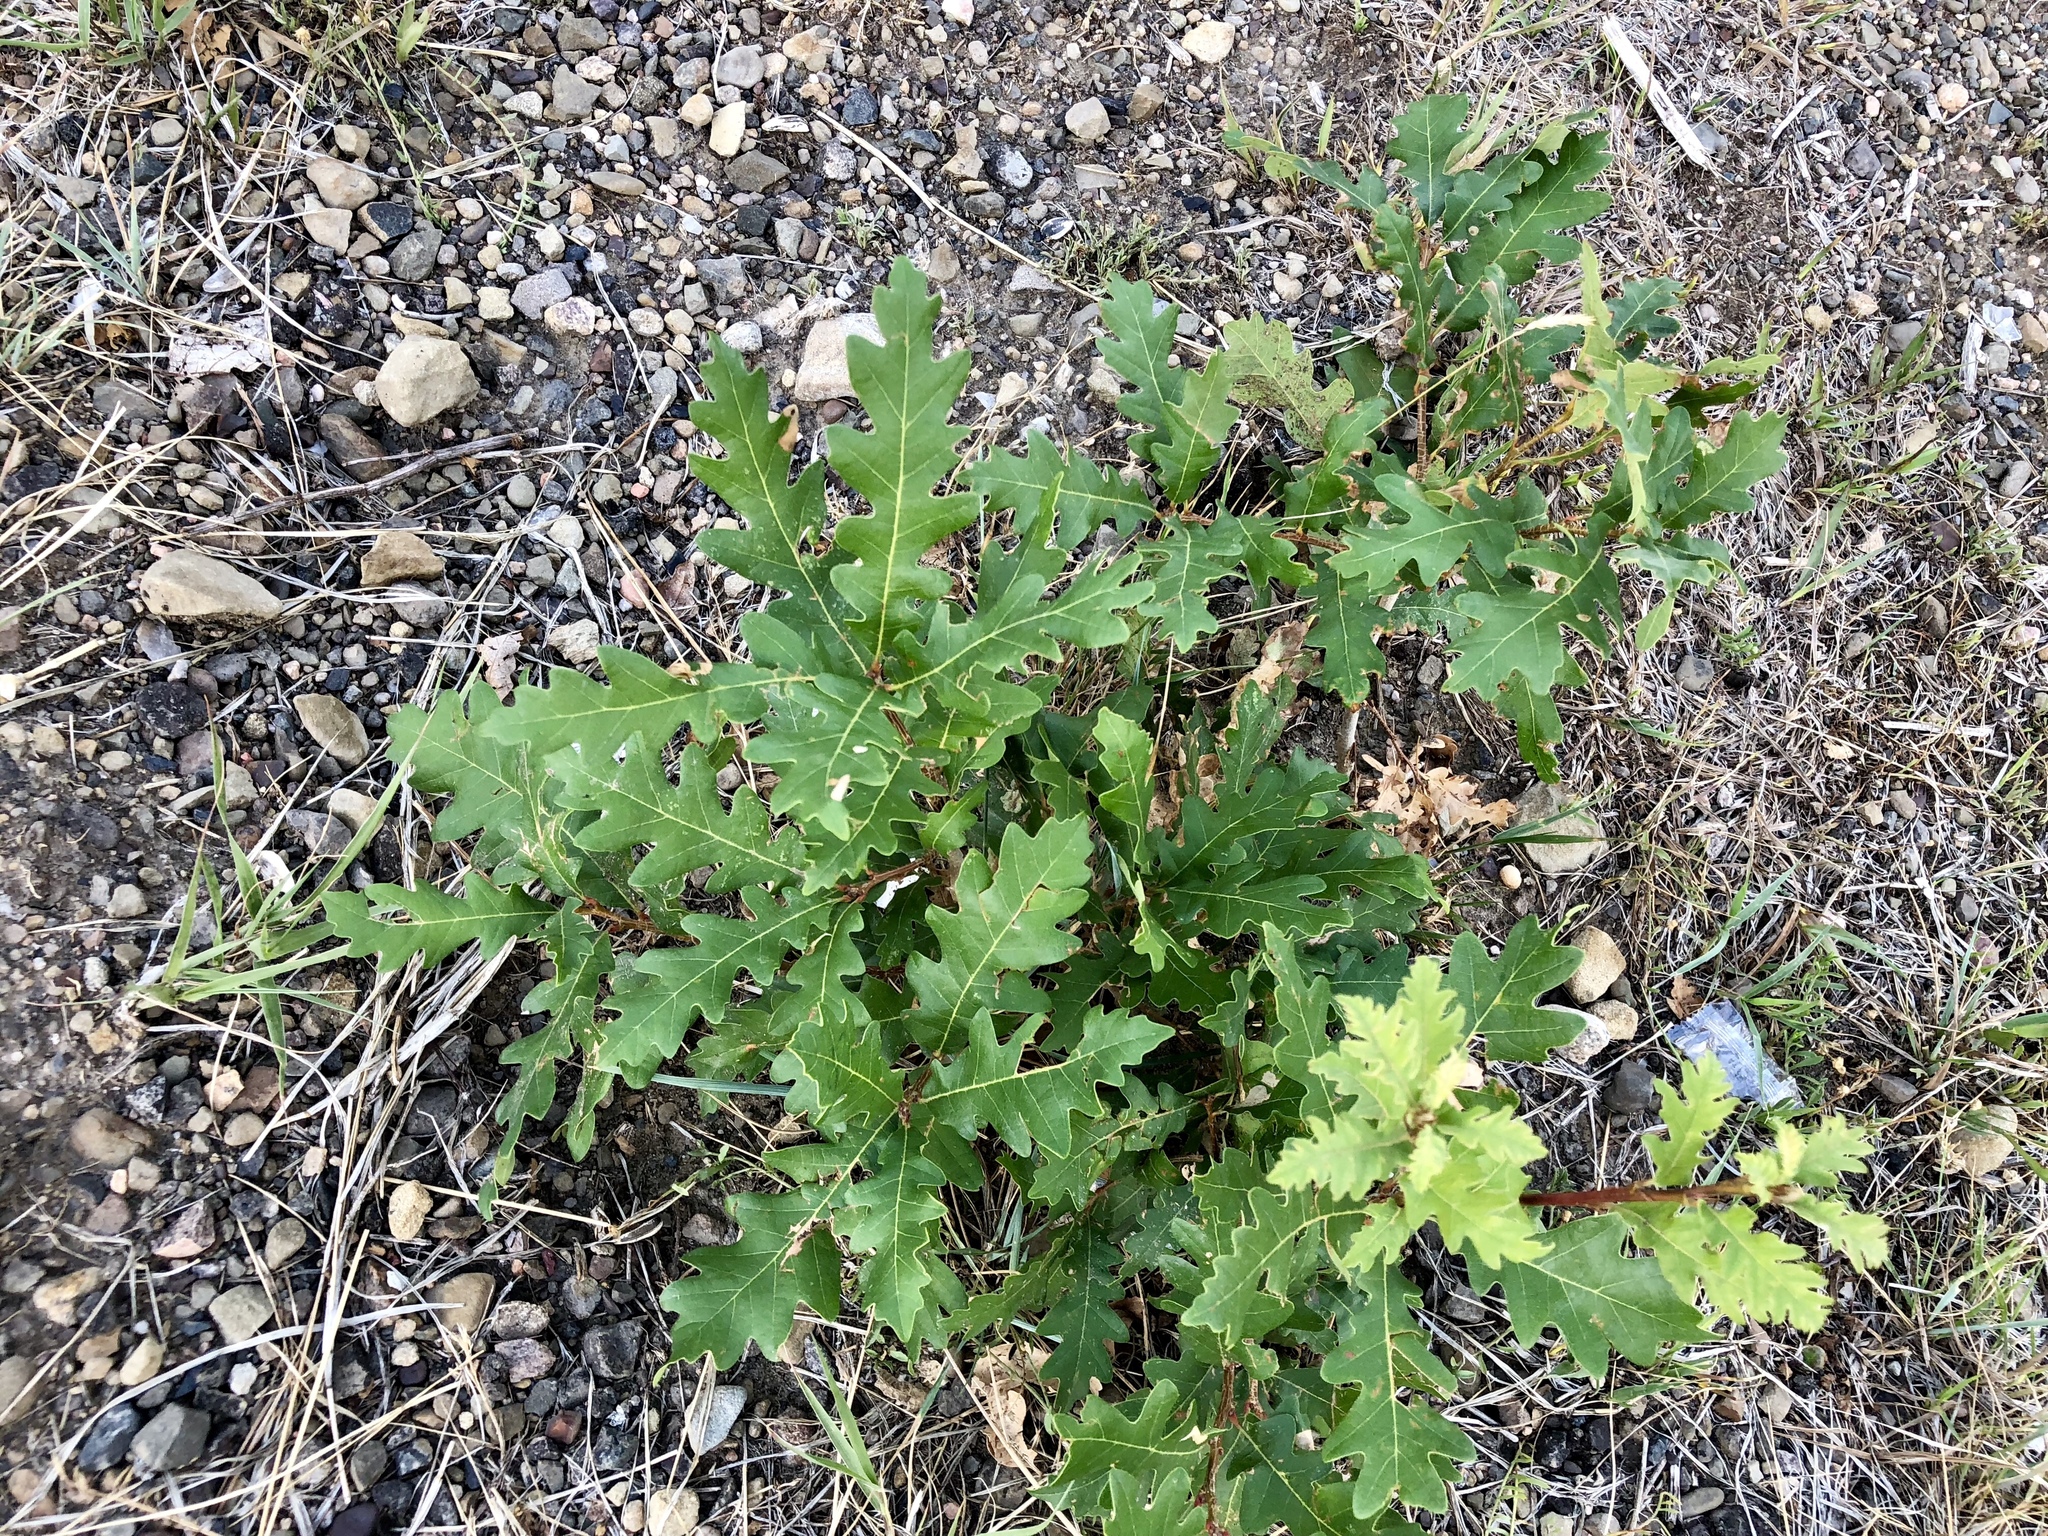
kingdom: Plantae
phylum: Tracheophyta
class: Magnoliopsida
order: Fagales
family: Fagaceae
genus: Quercus
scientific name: Quercus gambelii
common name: Gambel oak
